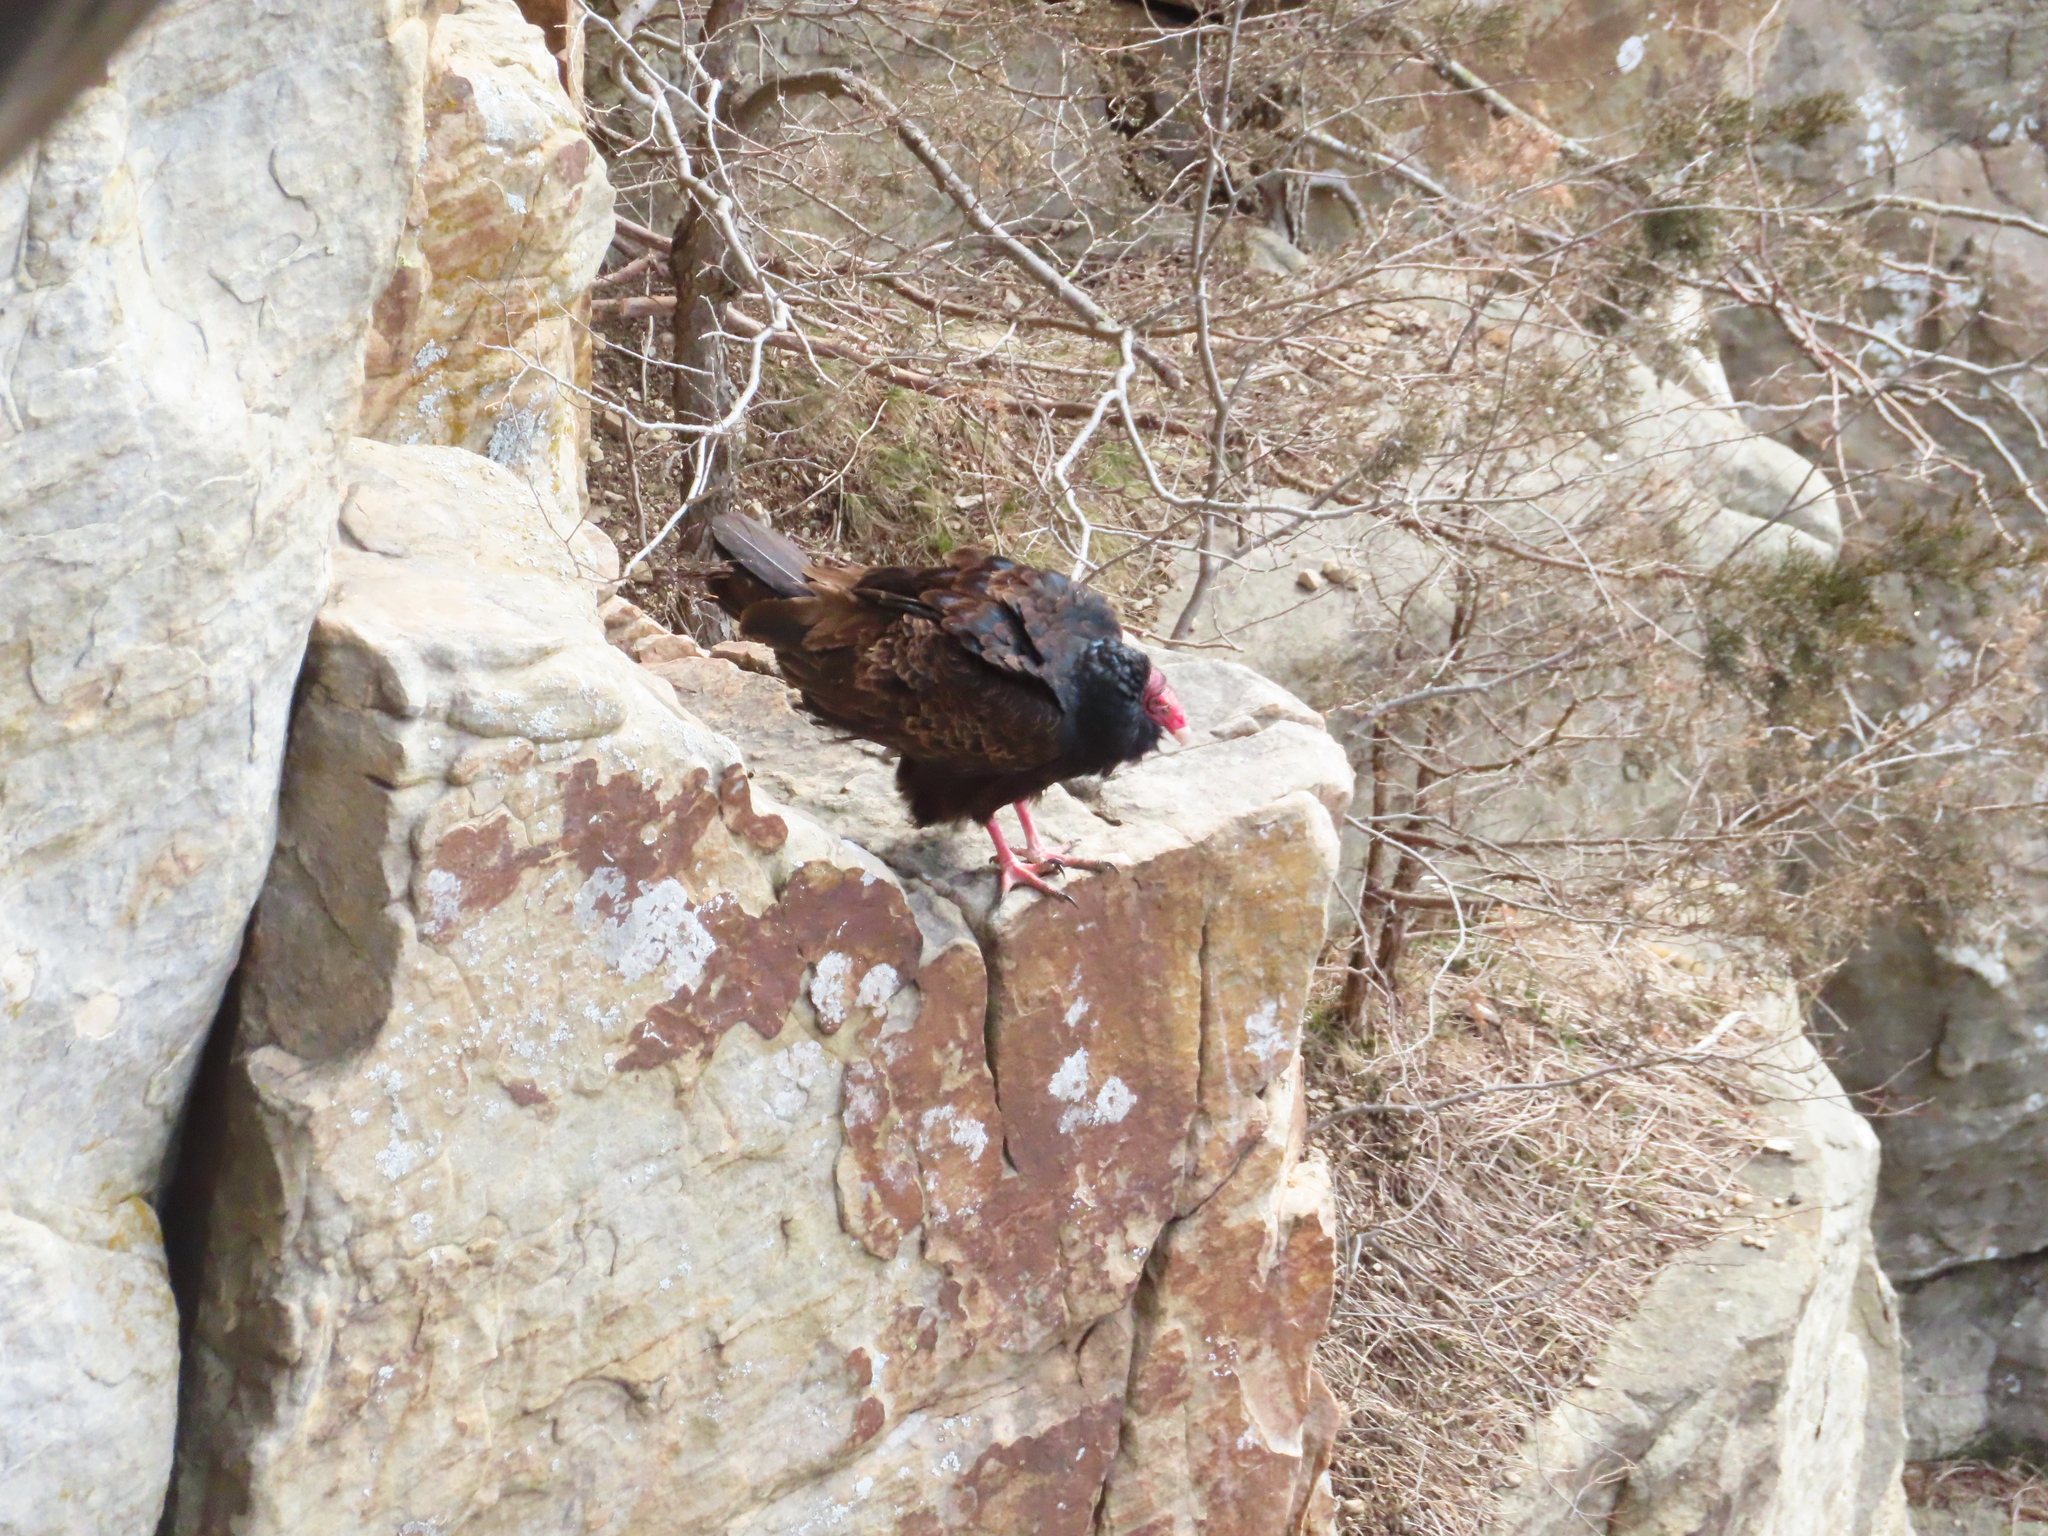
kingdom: Animalia
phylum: Chordata
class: Aves
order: Accipitriformes
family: Cathartidae
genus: Cathartes
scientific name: Cathartes aura
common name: Turkey vulture
